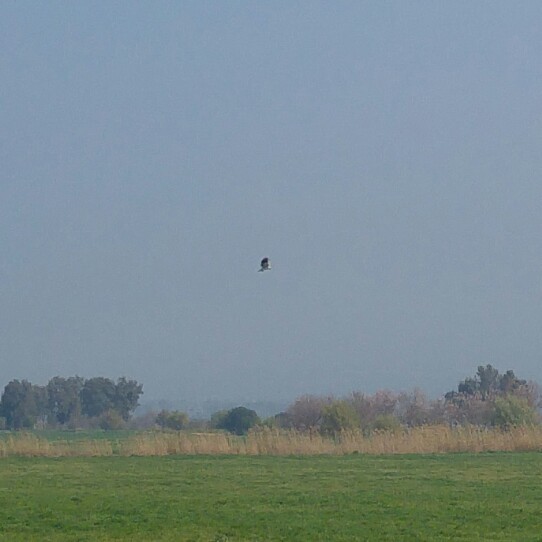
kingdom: Animalia
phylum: Chordata
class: Aves
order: Accipitriformes
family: Accipitridae
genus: Elanus
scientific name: Elanus caeruleus
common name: Black-winged kite
